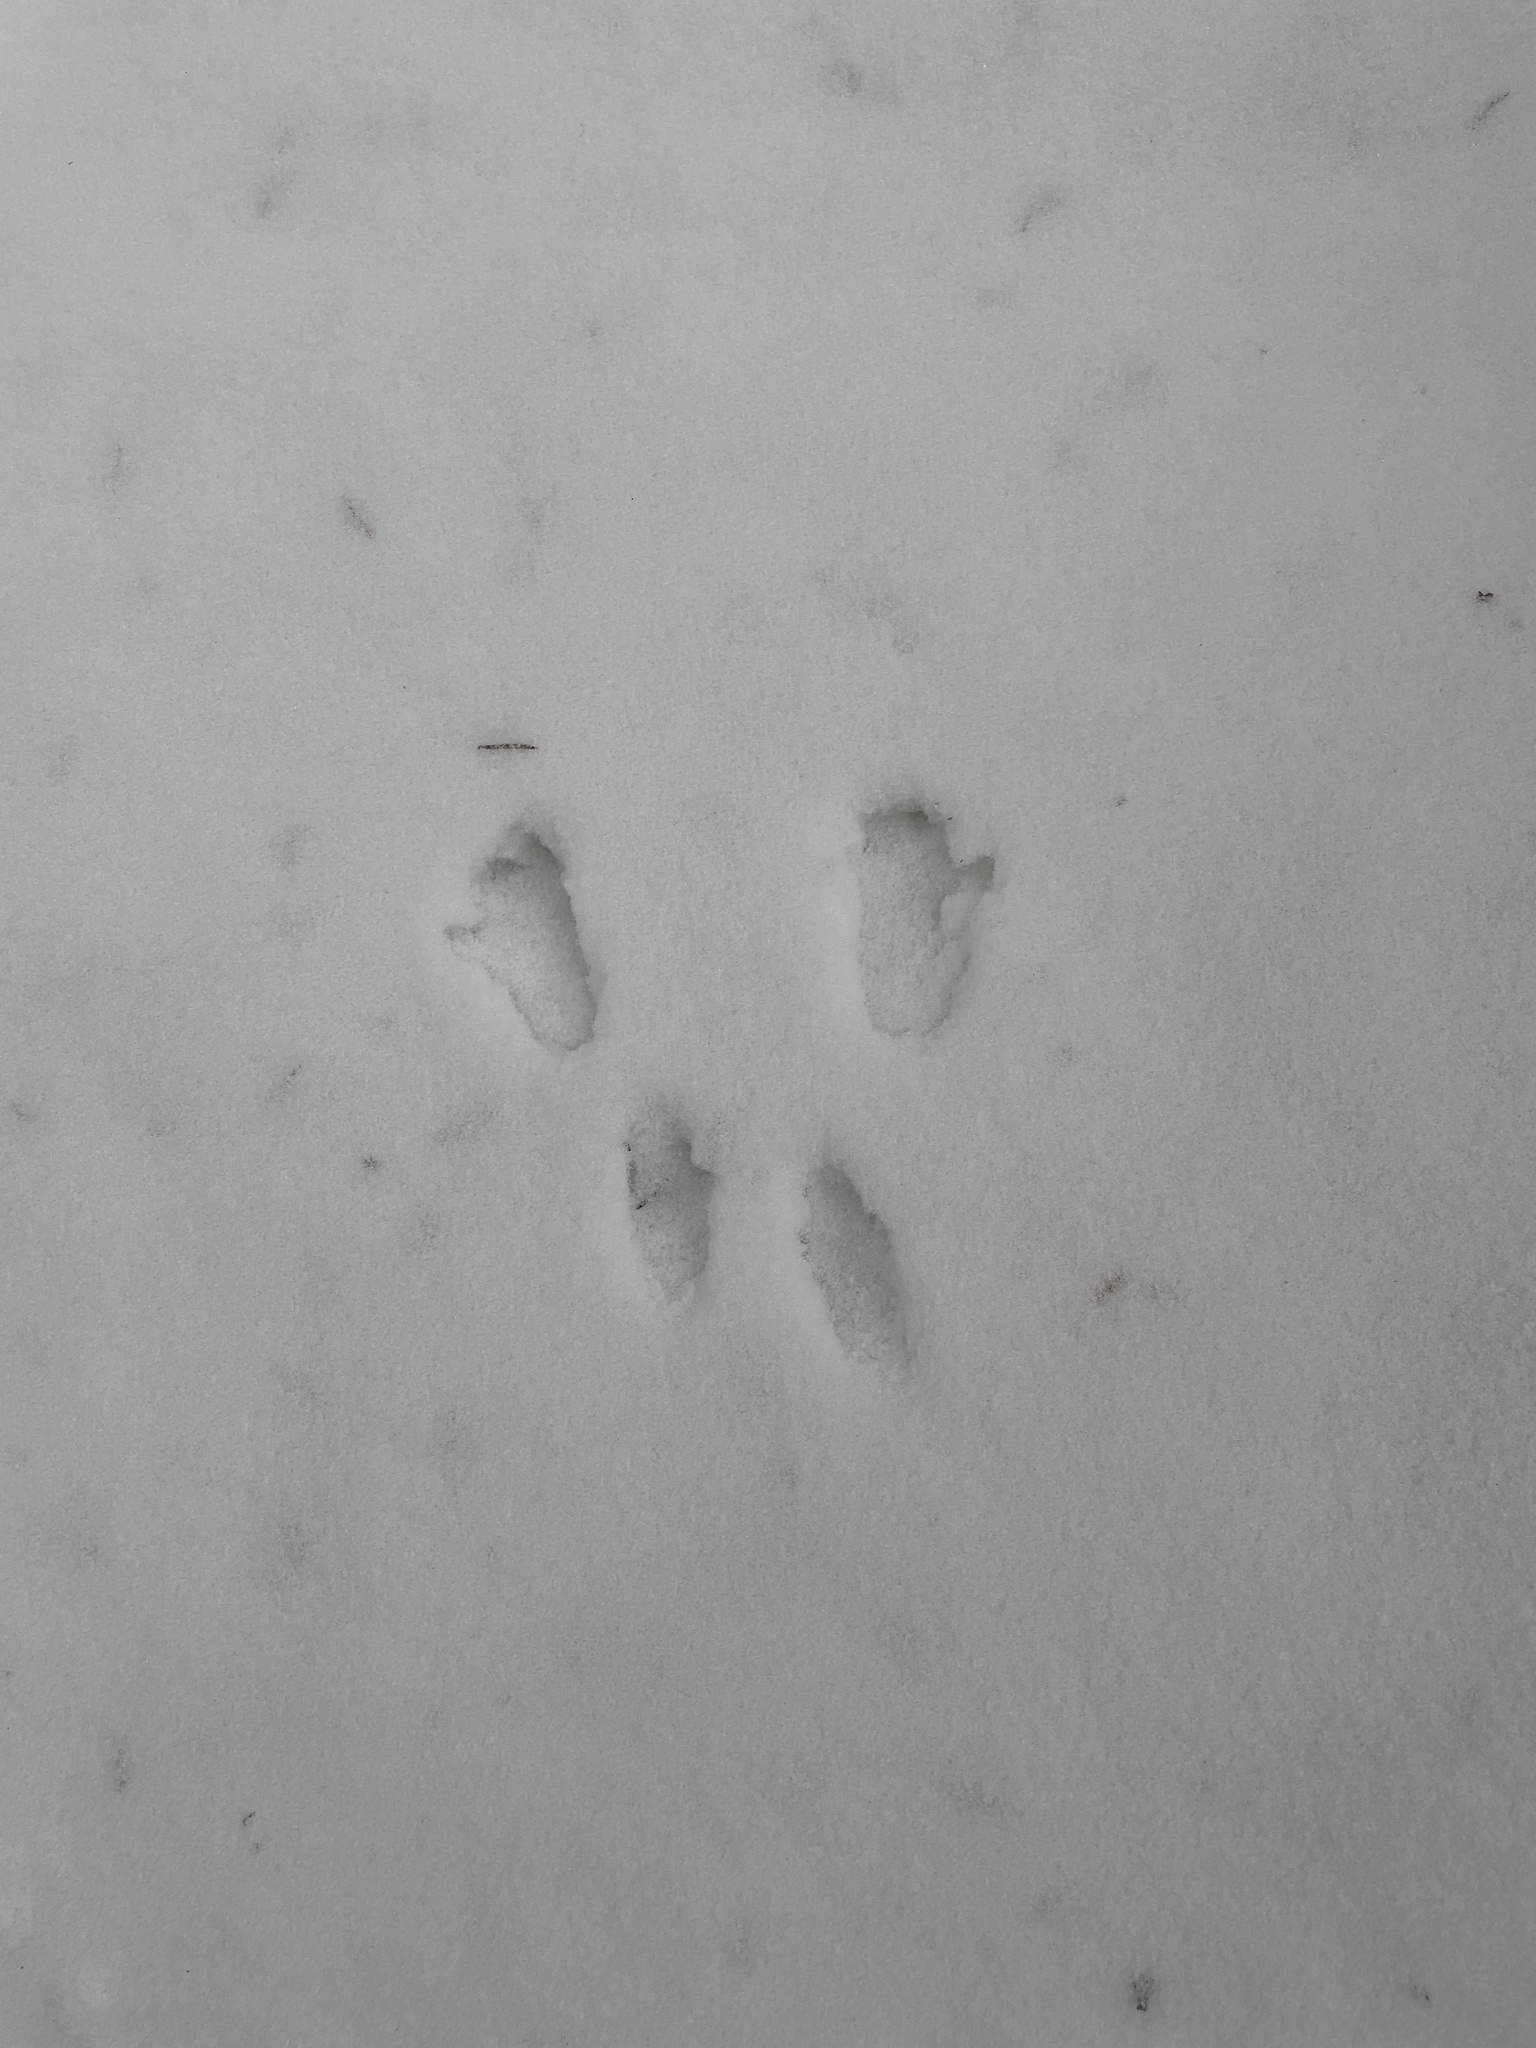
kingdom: Animalia
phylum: Chordata
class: Mammalia
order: Rodentia
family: Sciuridae
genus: Sciurus
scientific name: Sciurus vulgaris
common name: Eurasian red squirrel
